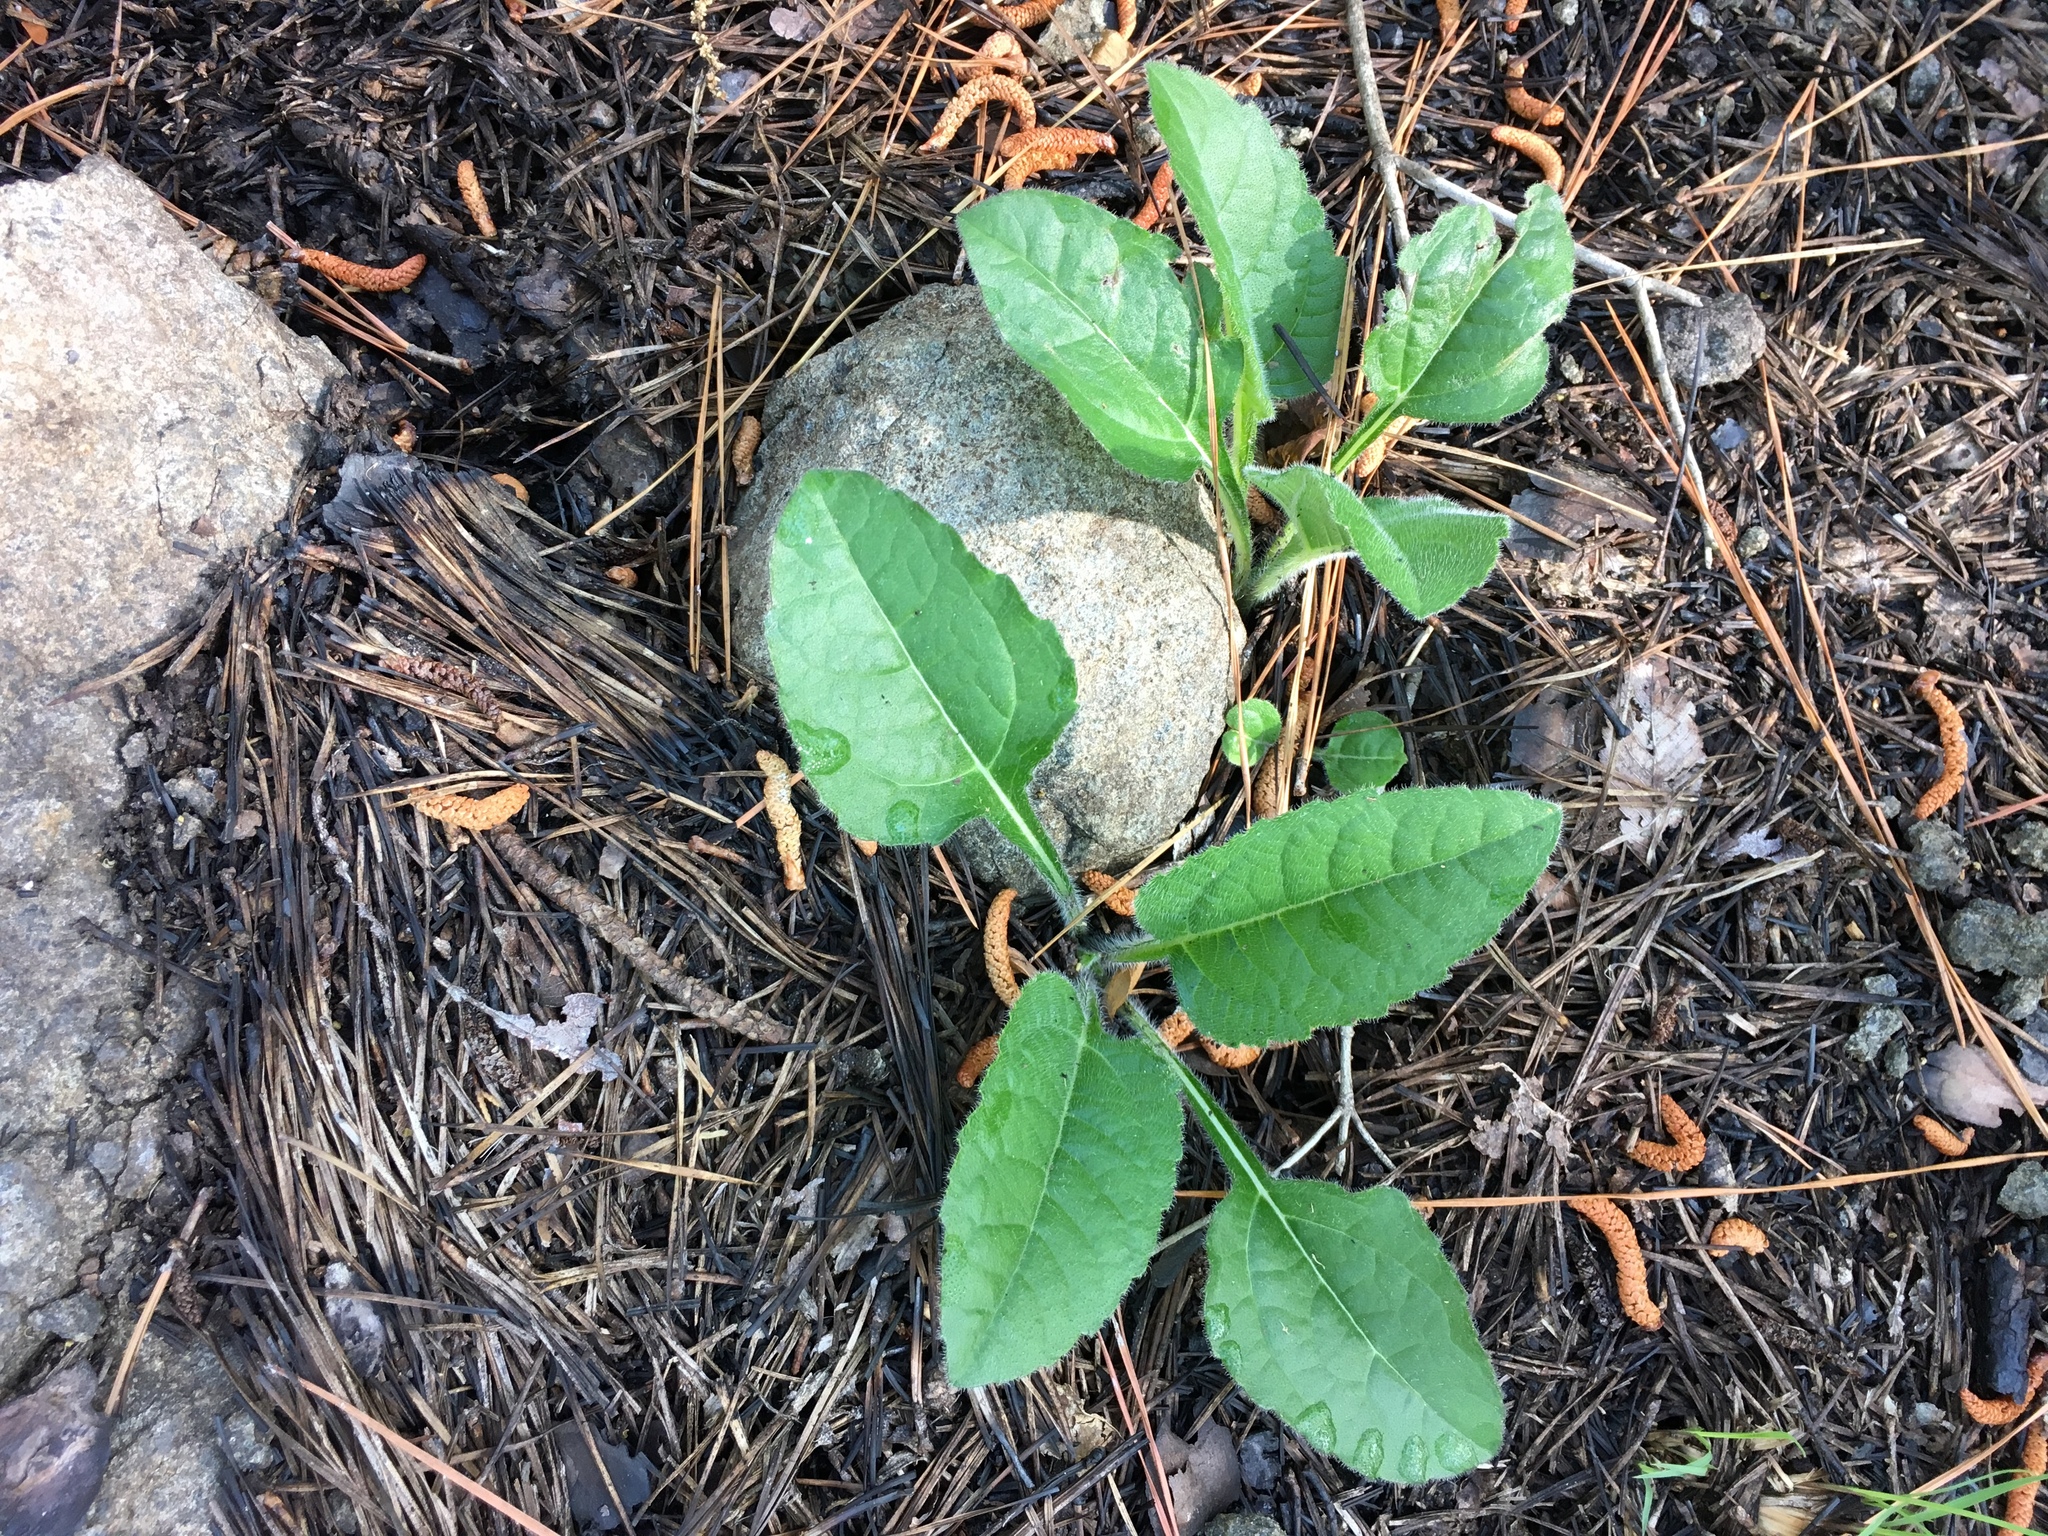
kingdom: Plantae
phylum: Tracheophyta
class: Magnoliopsida
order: Asterales
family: Asteraceae
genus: Parthenium
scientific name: Parthenium auriculatum
